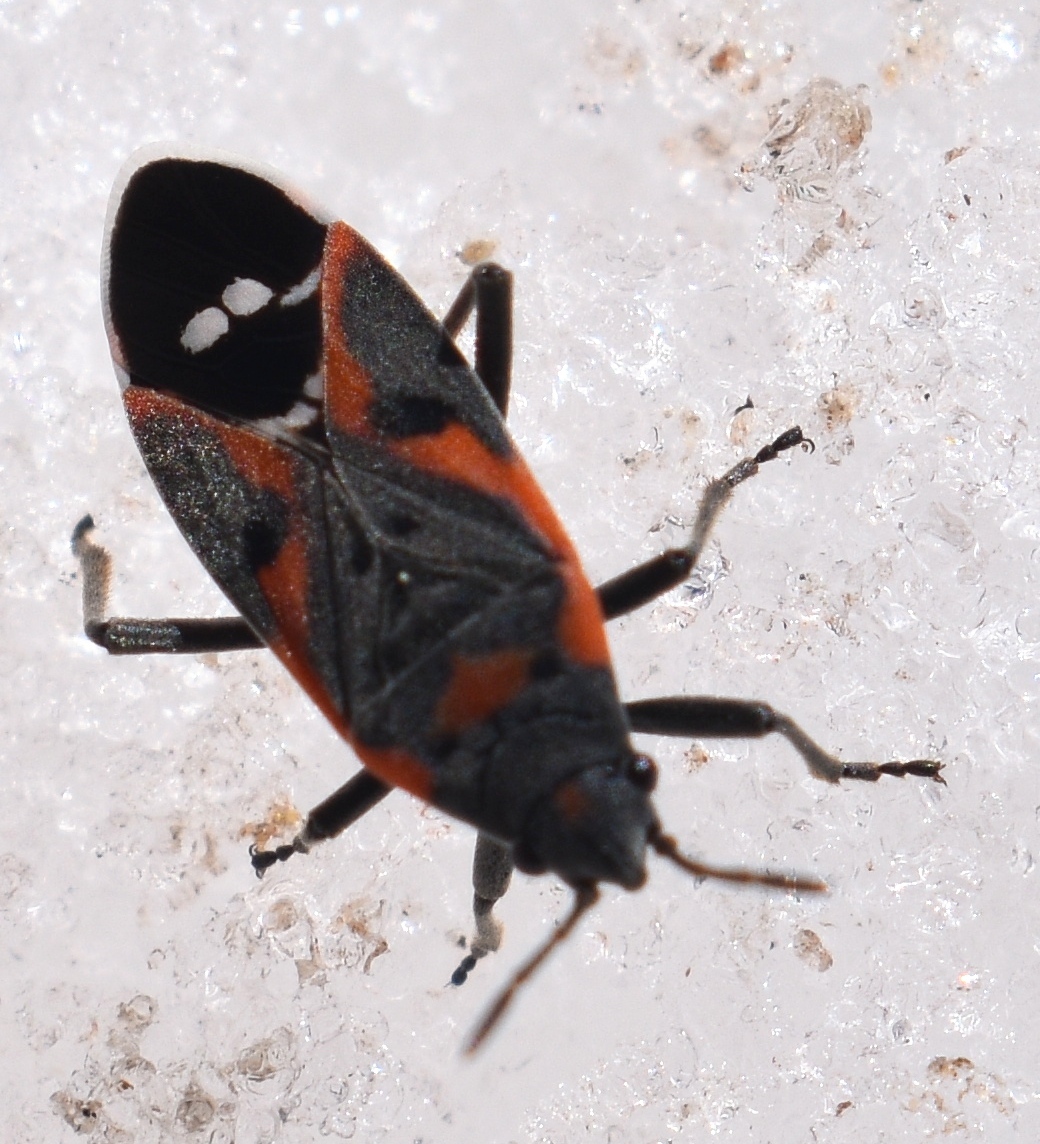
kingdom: Animalia
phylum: Arthropoda
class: Insecta
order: Hemiptera
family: Lygaeidae
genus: Lygaeus
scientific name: Lygaeus kalmii
